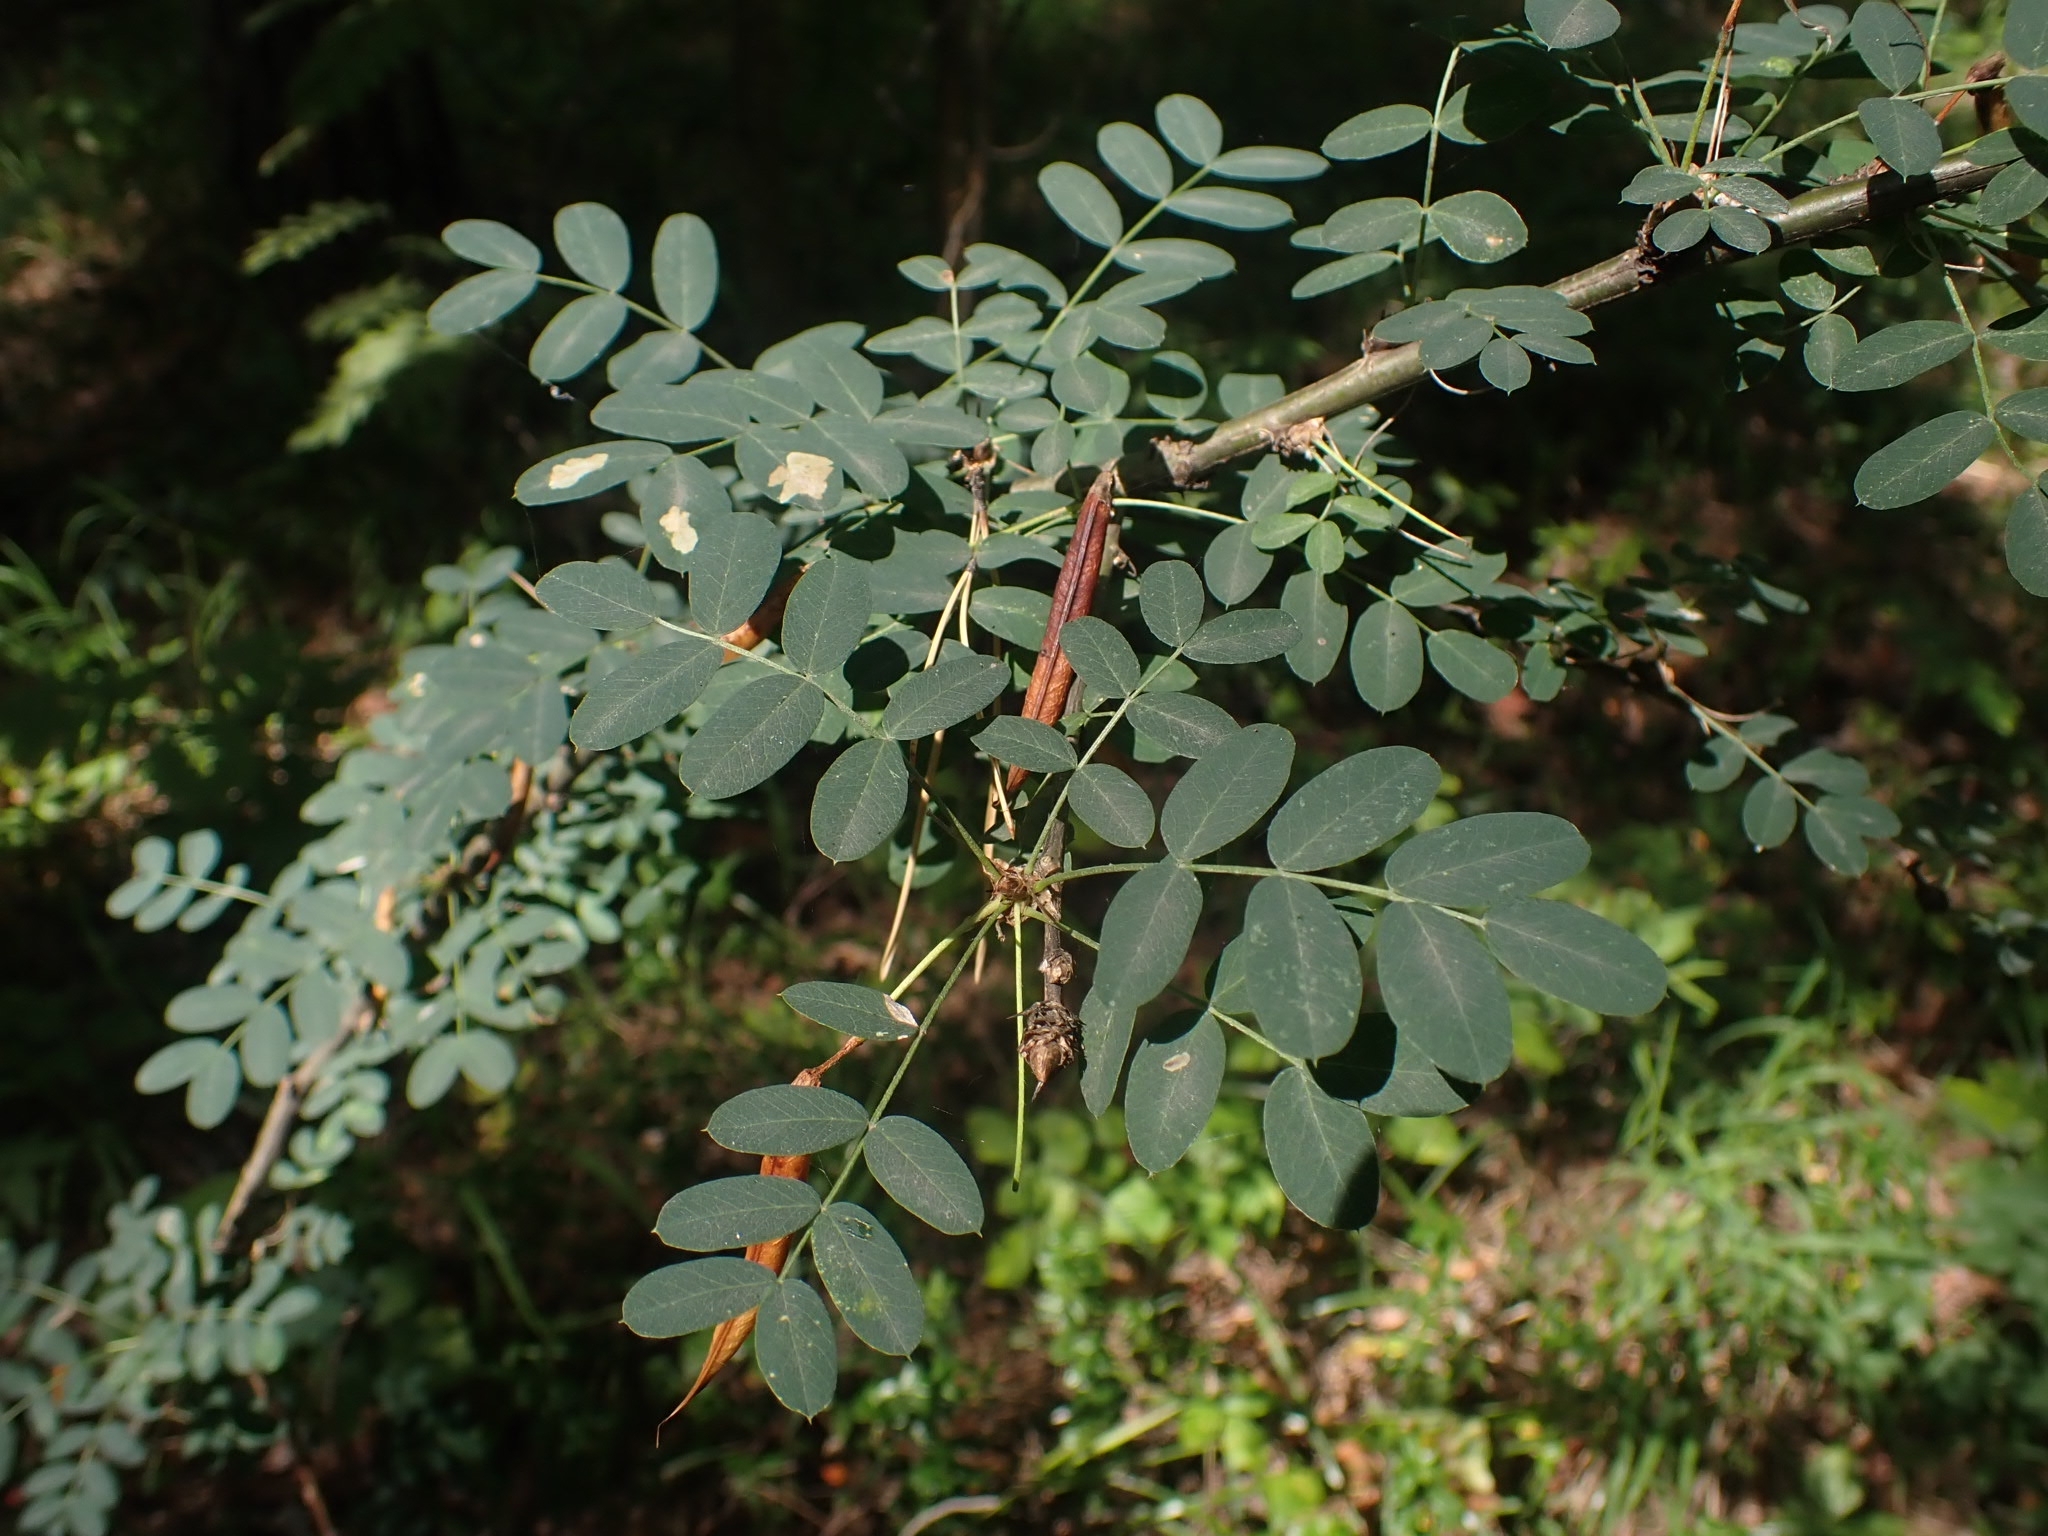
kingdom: Plantae
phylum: Tracheophyta
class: Magnoliopsida
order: Fabales
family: Fabaceae
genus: Caragana
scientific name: Caragana arborescens
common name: Siberian peashrub
